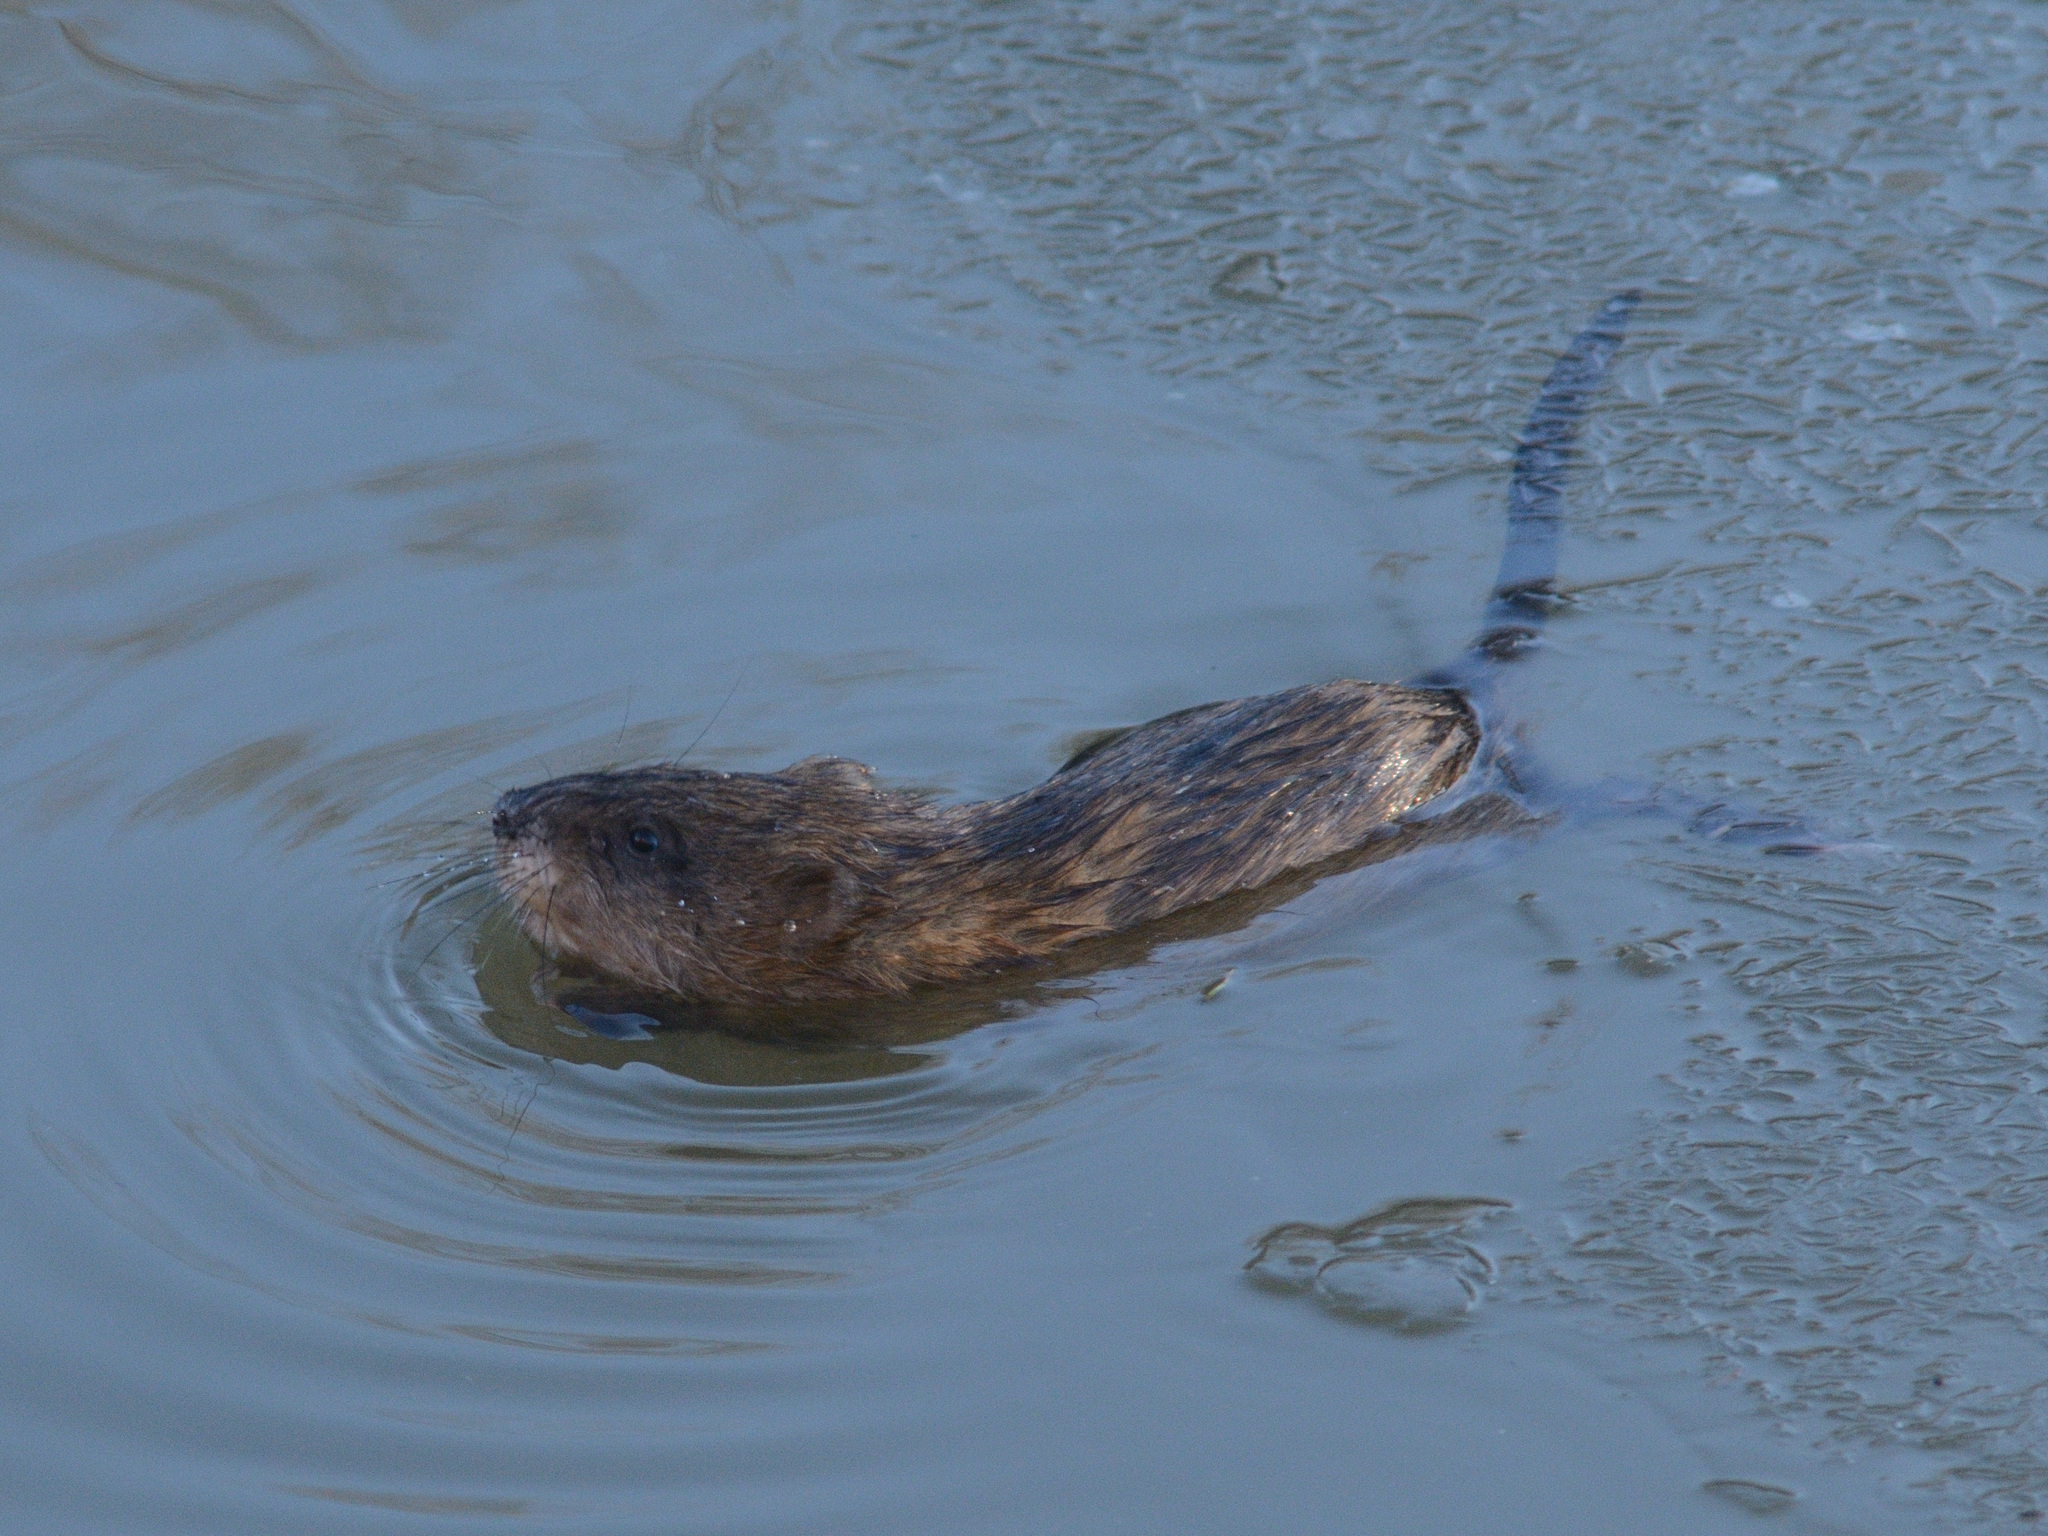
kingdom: Animalia
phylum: Chordata
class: Mammalia
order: Rodentia
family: Cricetidae
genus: Ondatra
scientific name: Ondatra zibethicus
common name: Muskrat
